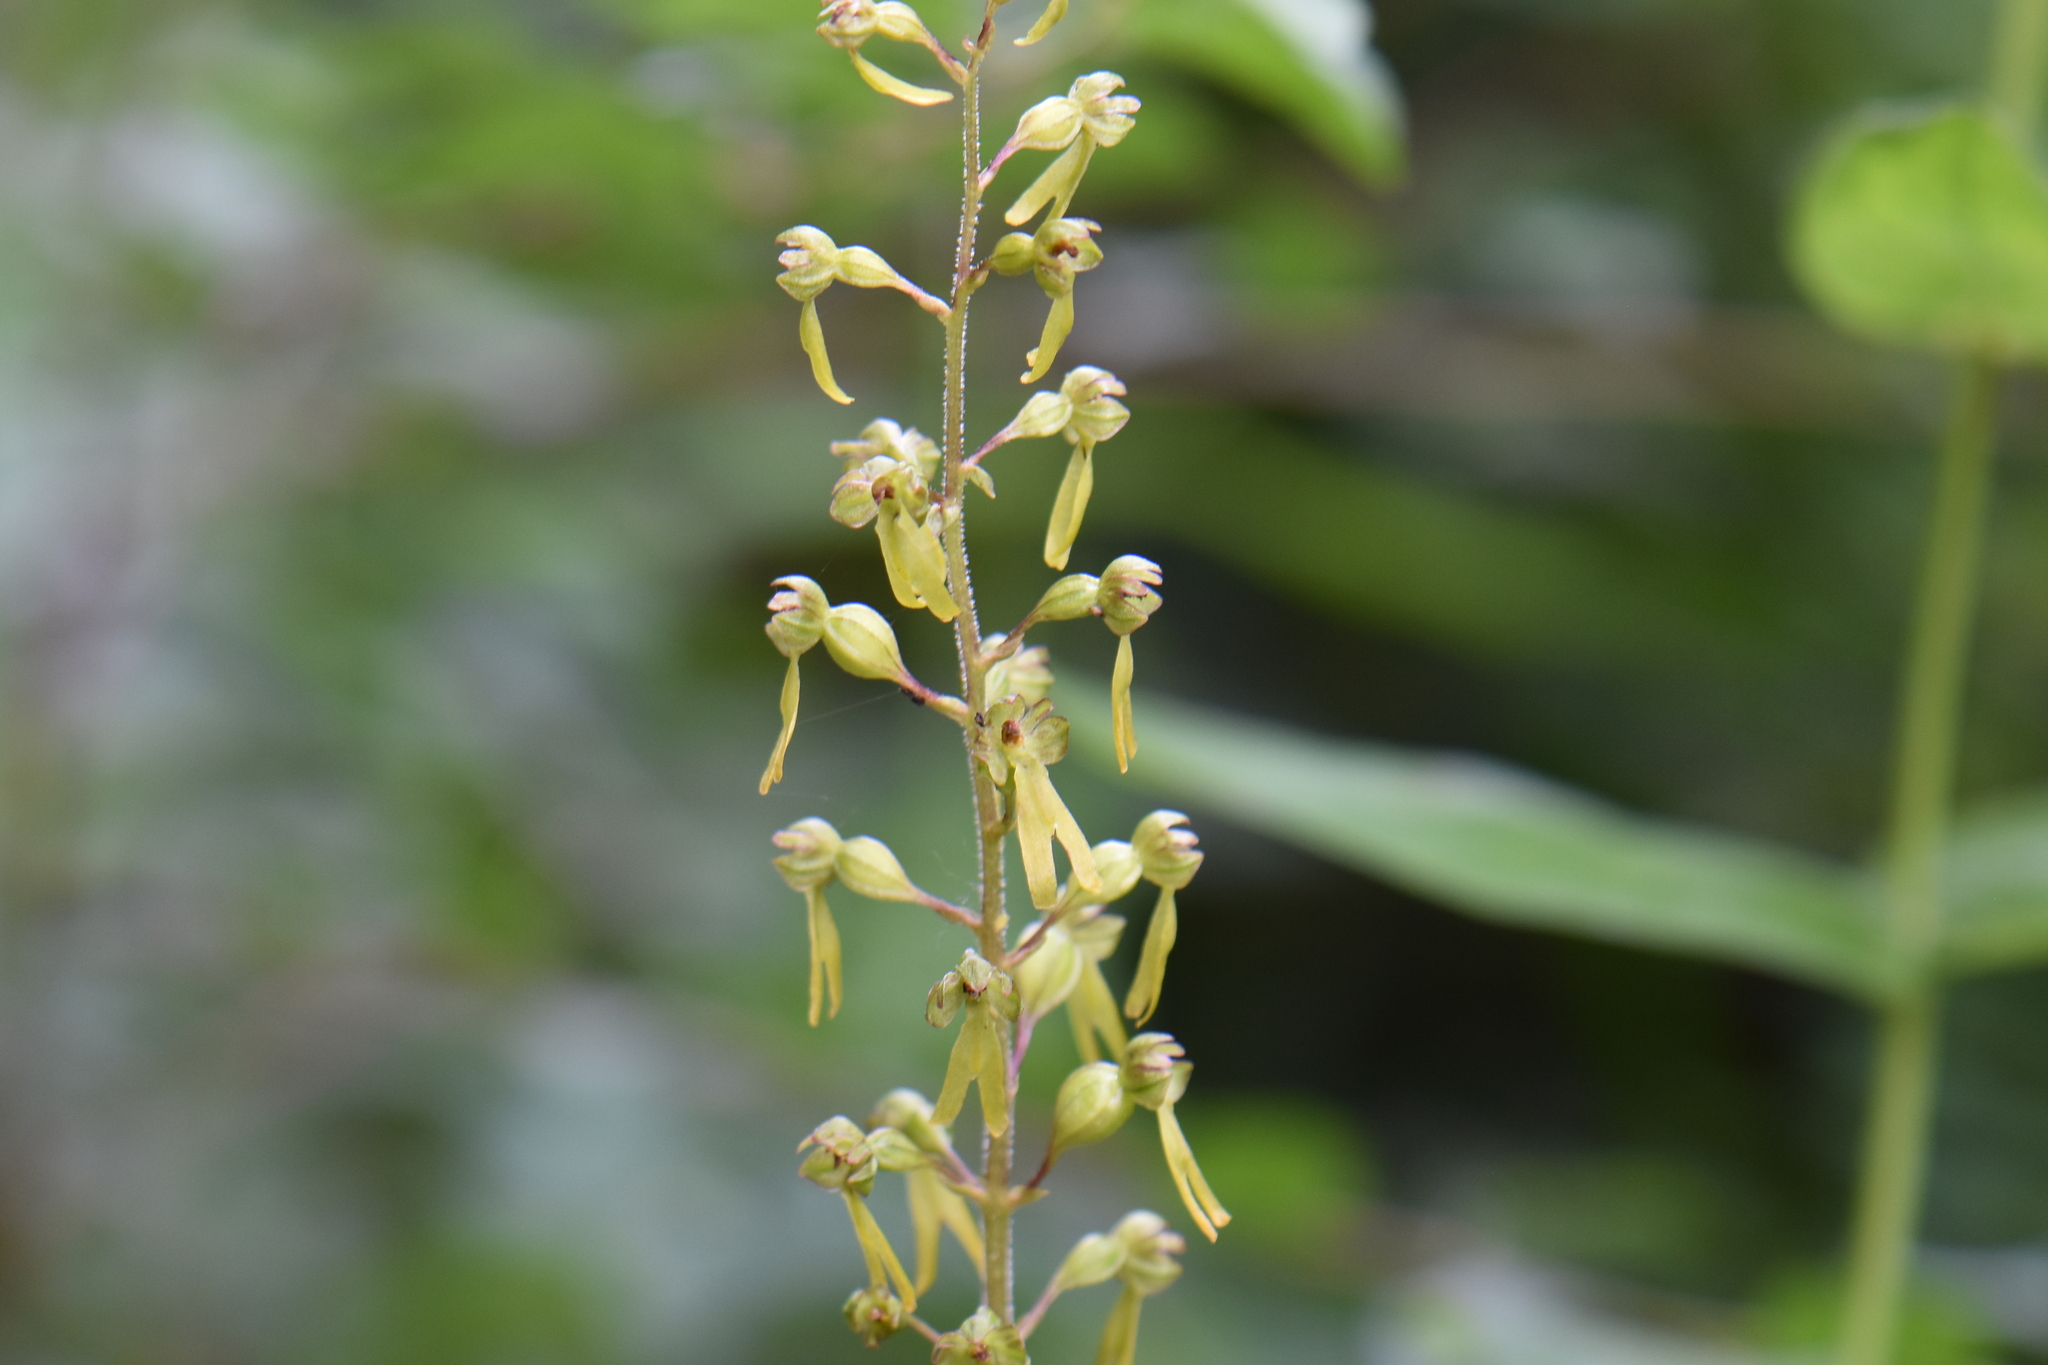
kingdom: Plantae
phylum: Tracheophyta
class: Liliopsida
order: Asparagales
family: Orchidaceae
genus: Neottia
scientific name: Neottia ovata
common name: Common twayblade
